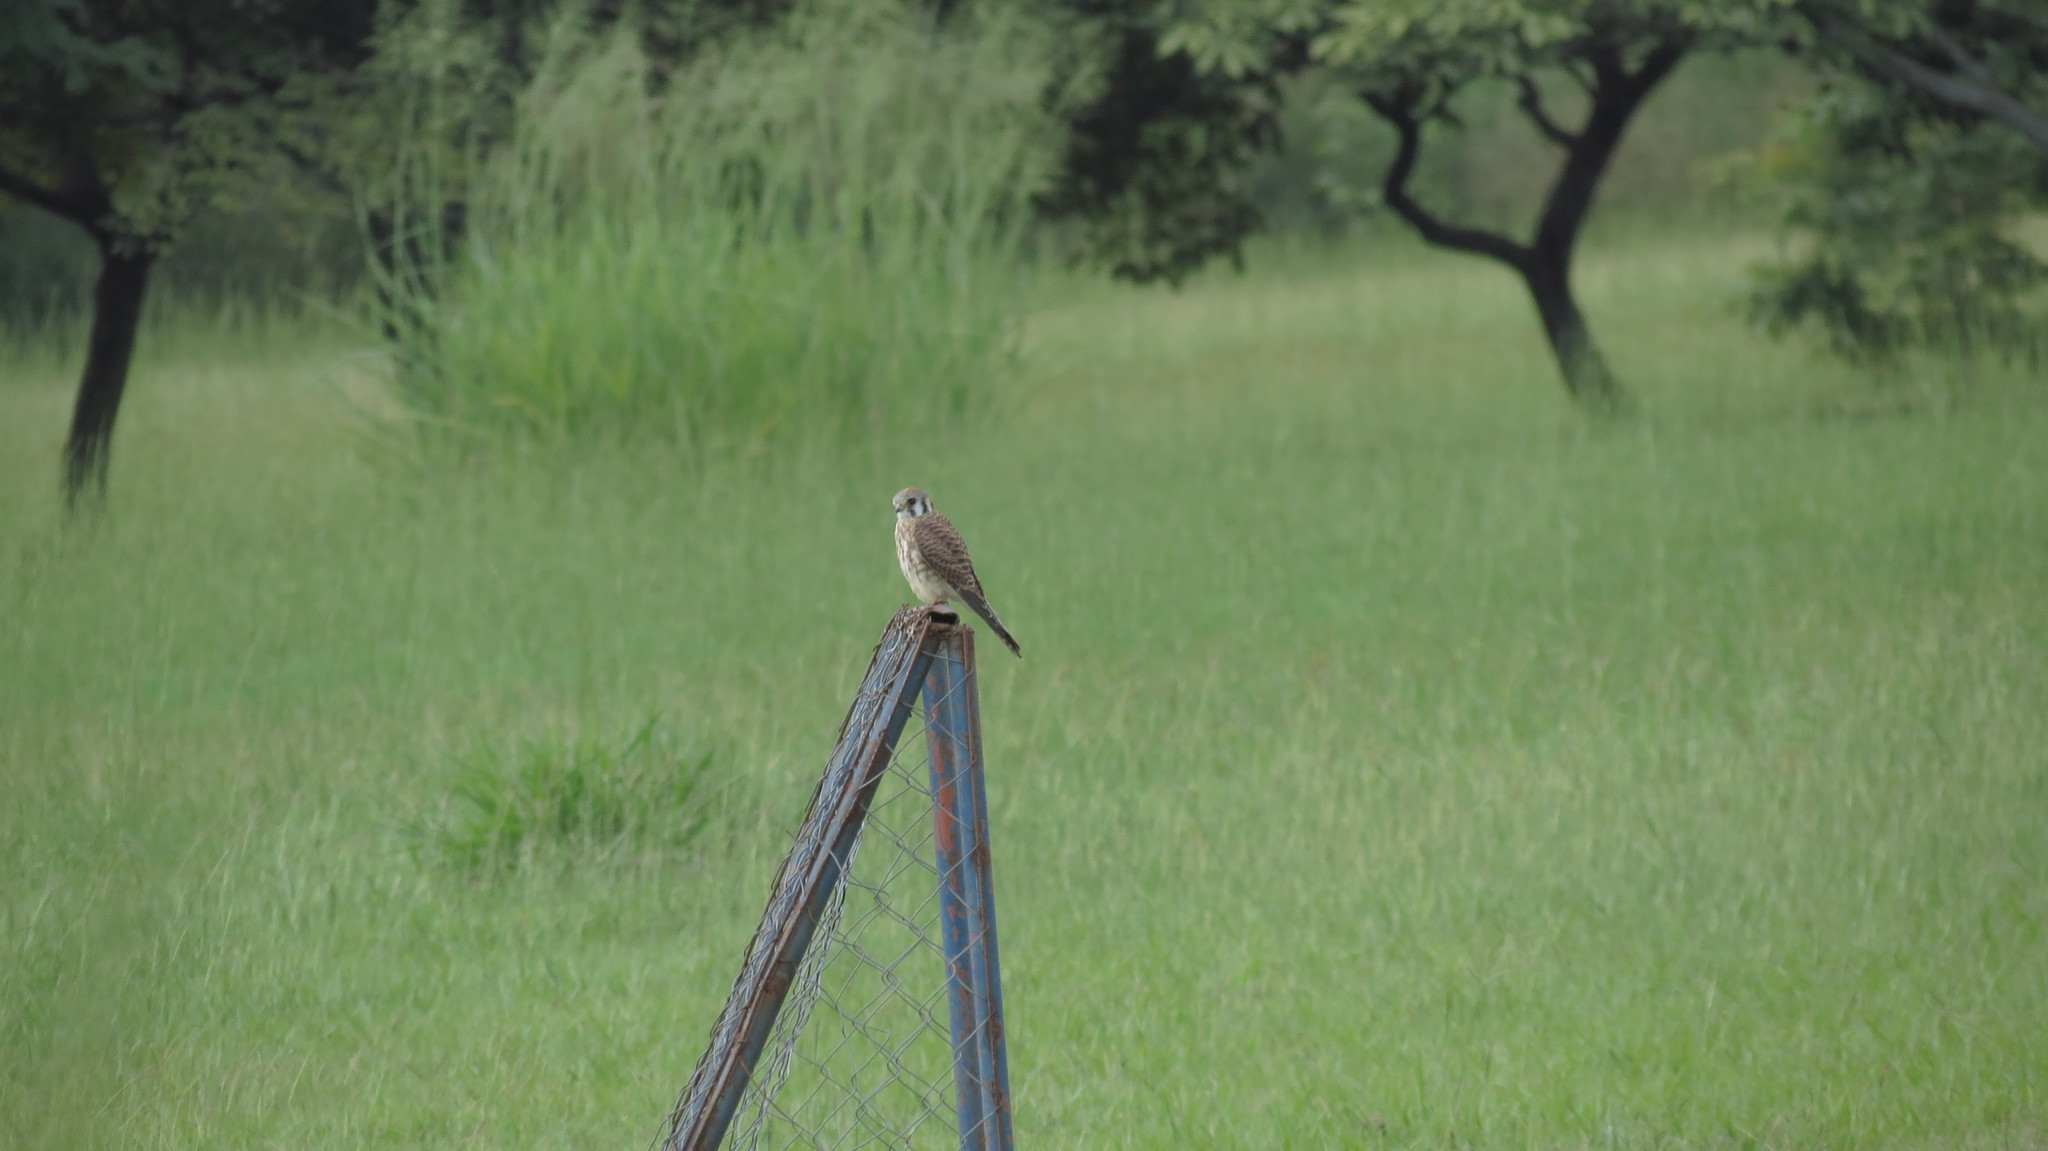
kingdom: Animalia
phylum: Chordata
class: Aves
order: Falconiformes
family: Falconidae
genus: Falco
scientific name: Falco sparverius
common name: American kestrel
